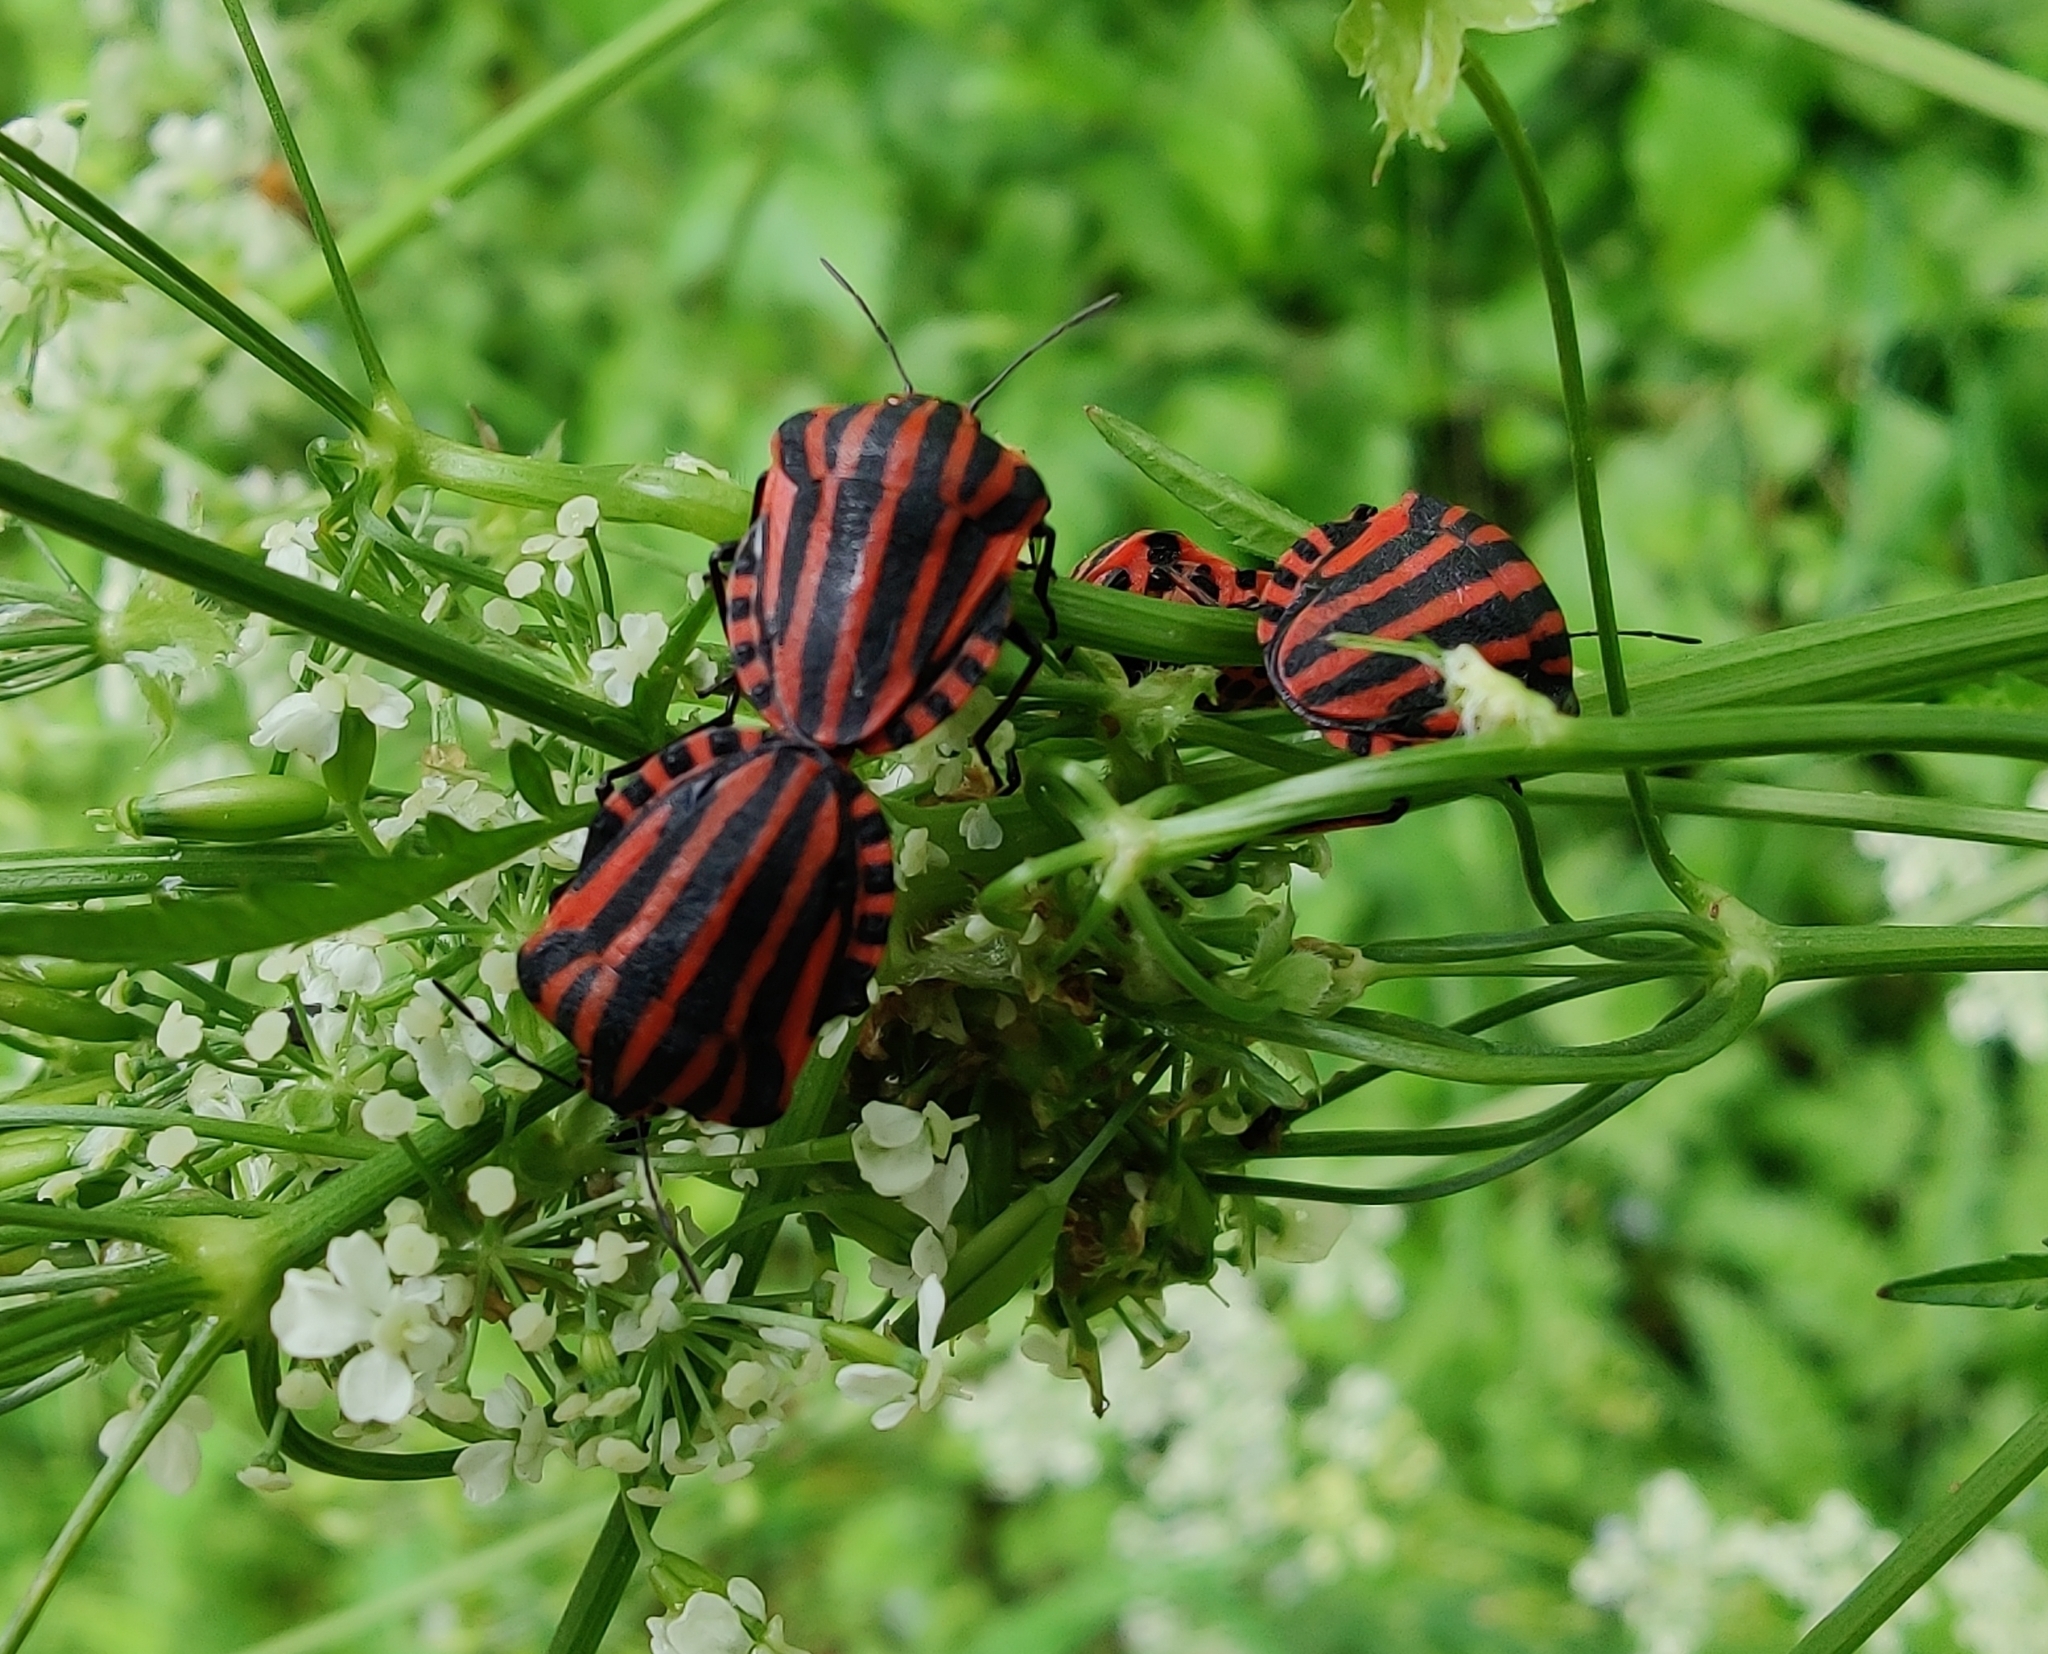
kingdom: Animalia
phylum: Arthropoda
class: Insecta
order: Hemiptera
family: Pentatomidae
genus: Graphosoma
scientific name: Graphosoma italicum
